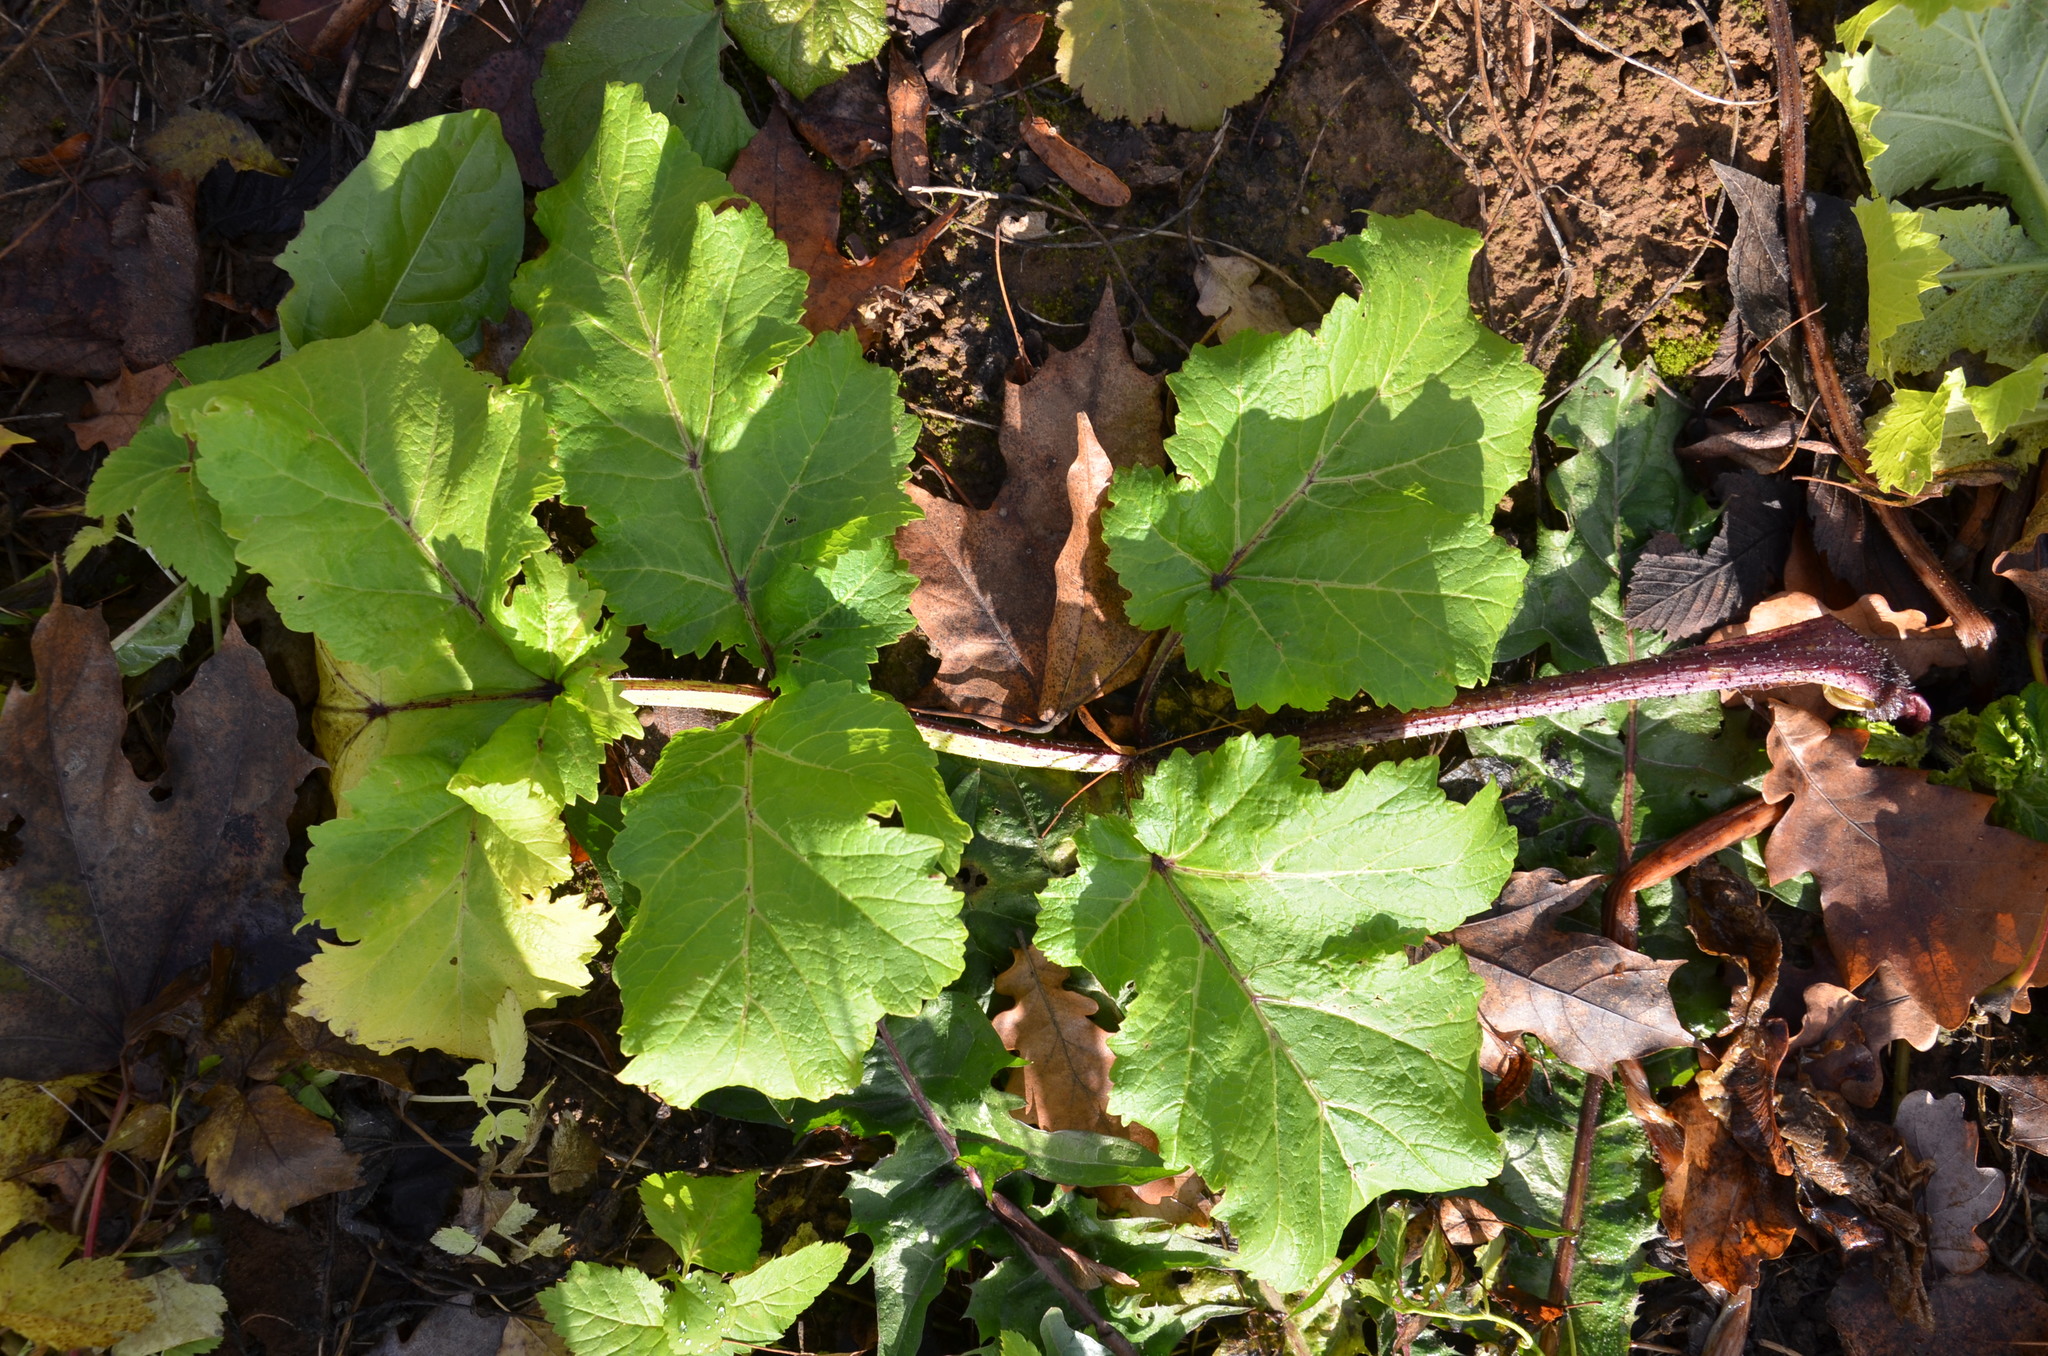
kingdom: Plantae
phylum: Tracheophyta
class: Magnoliopsida
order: Apiales
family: Apiaceae
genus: Heracleum
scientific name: Heracleum sosnowskyi
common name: Sosnowsky's hogweed
